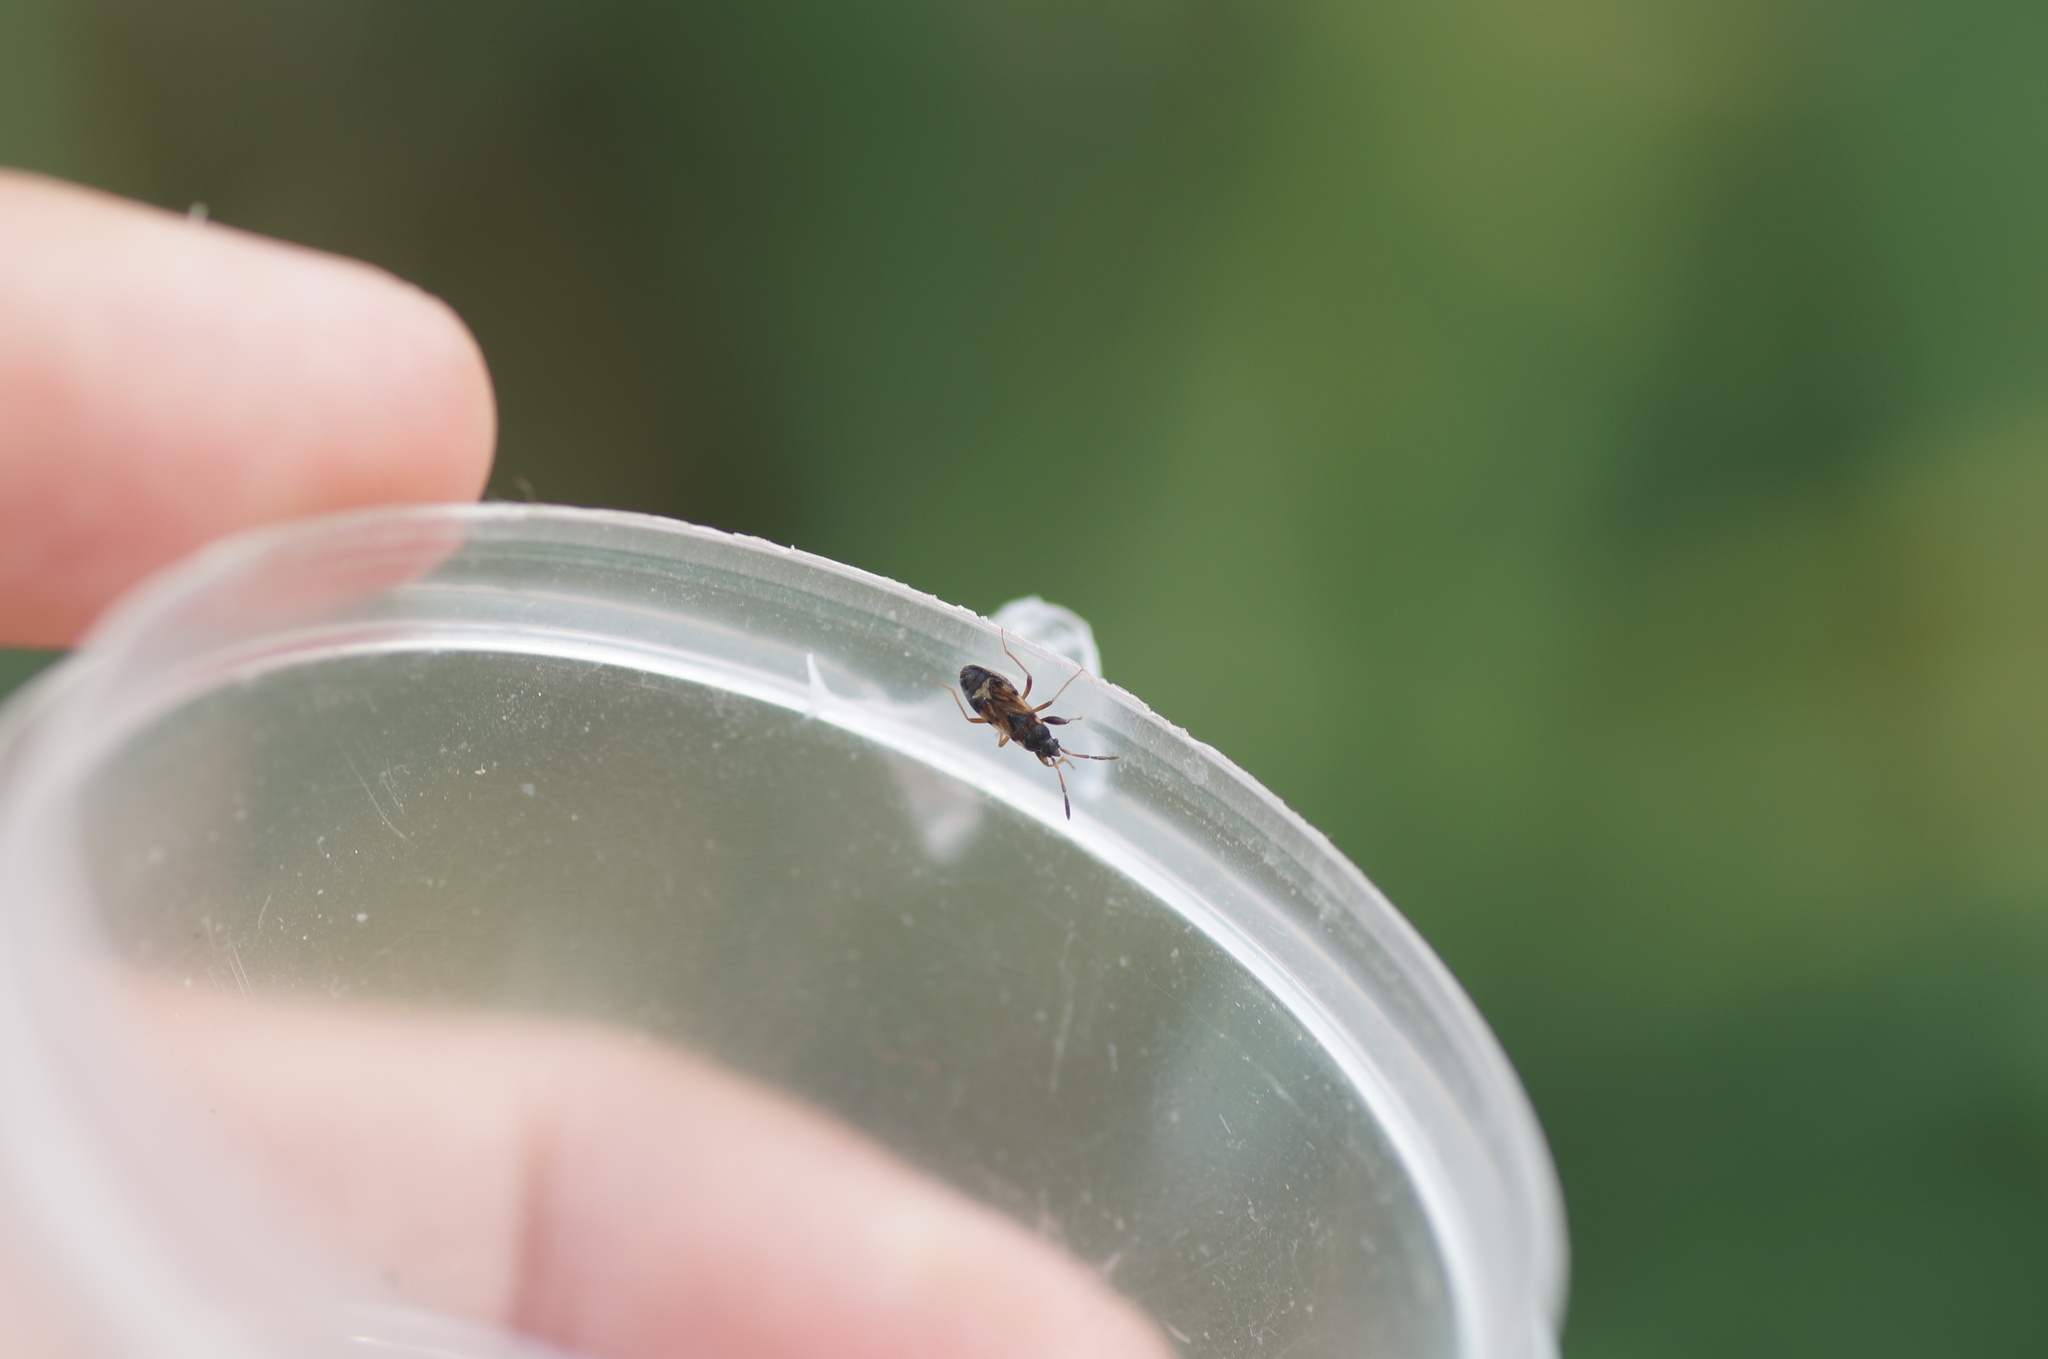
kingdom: Animalia
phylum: Arthropoda
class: Insecta
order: Hemiptera
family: Rhyparochromidae
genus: Scolopostethus
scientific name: Scolopostethus
